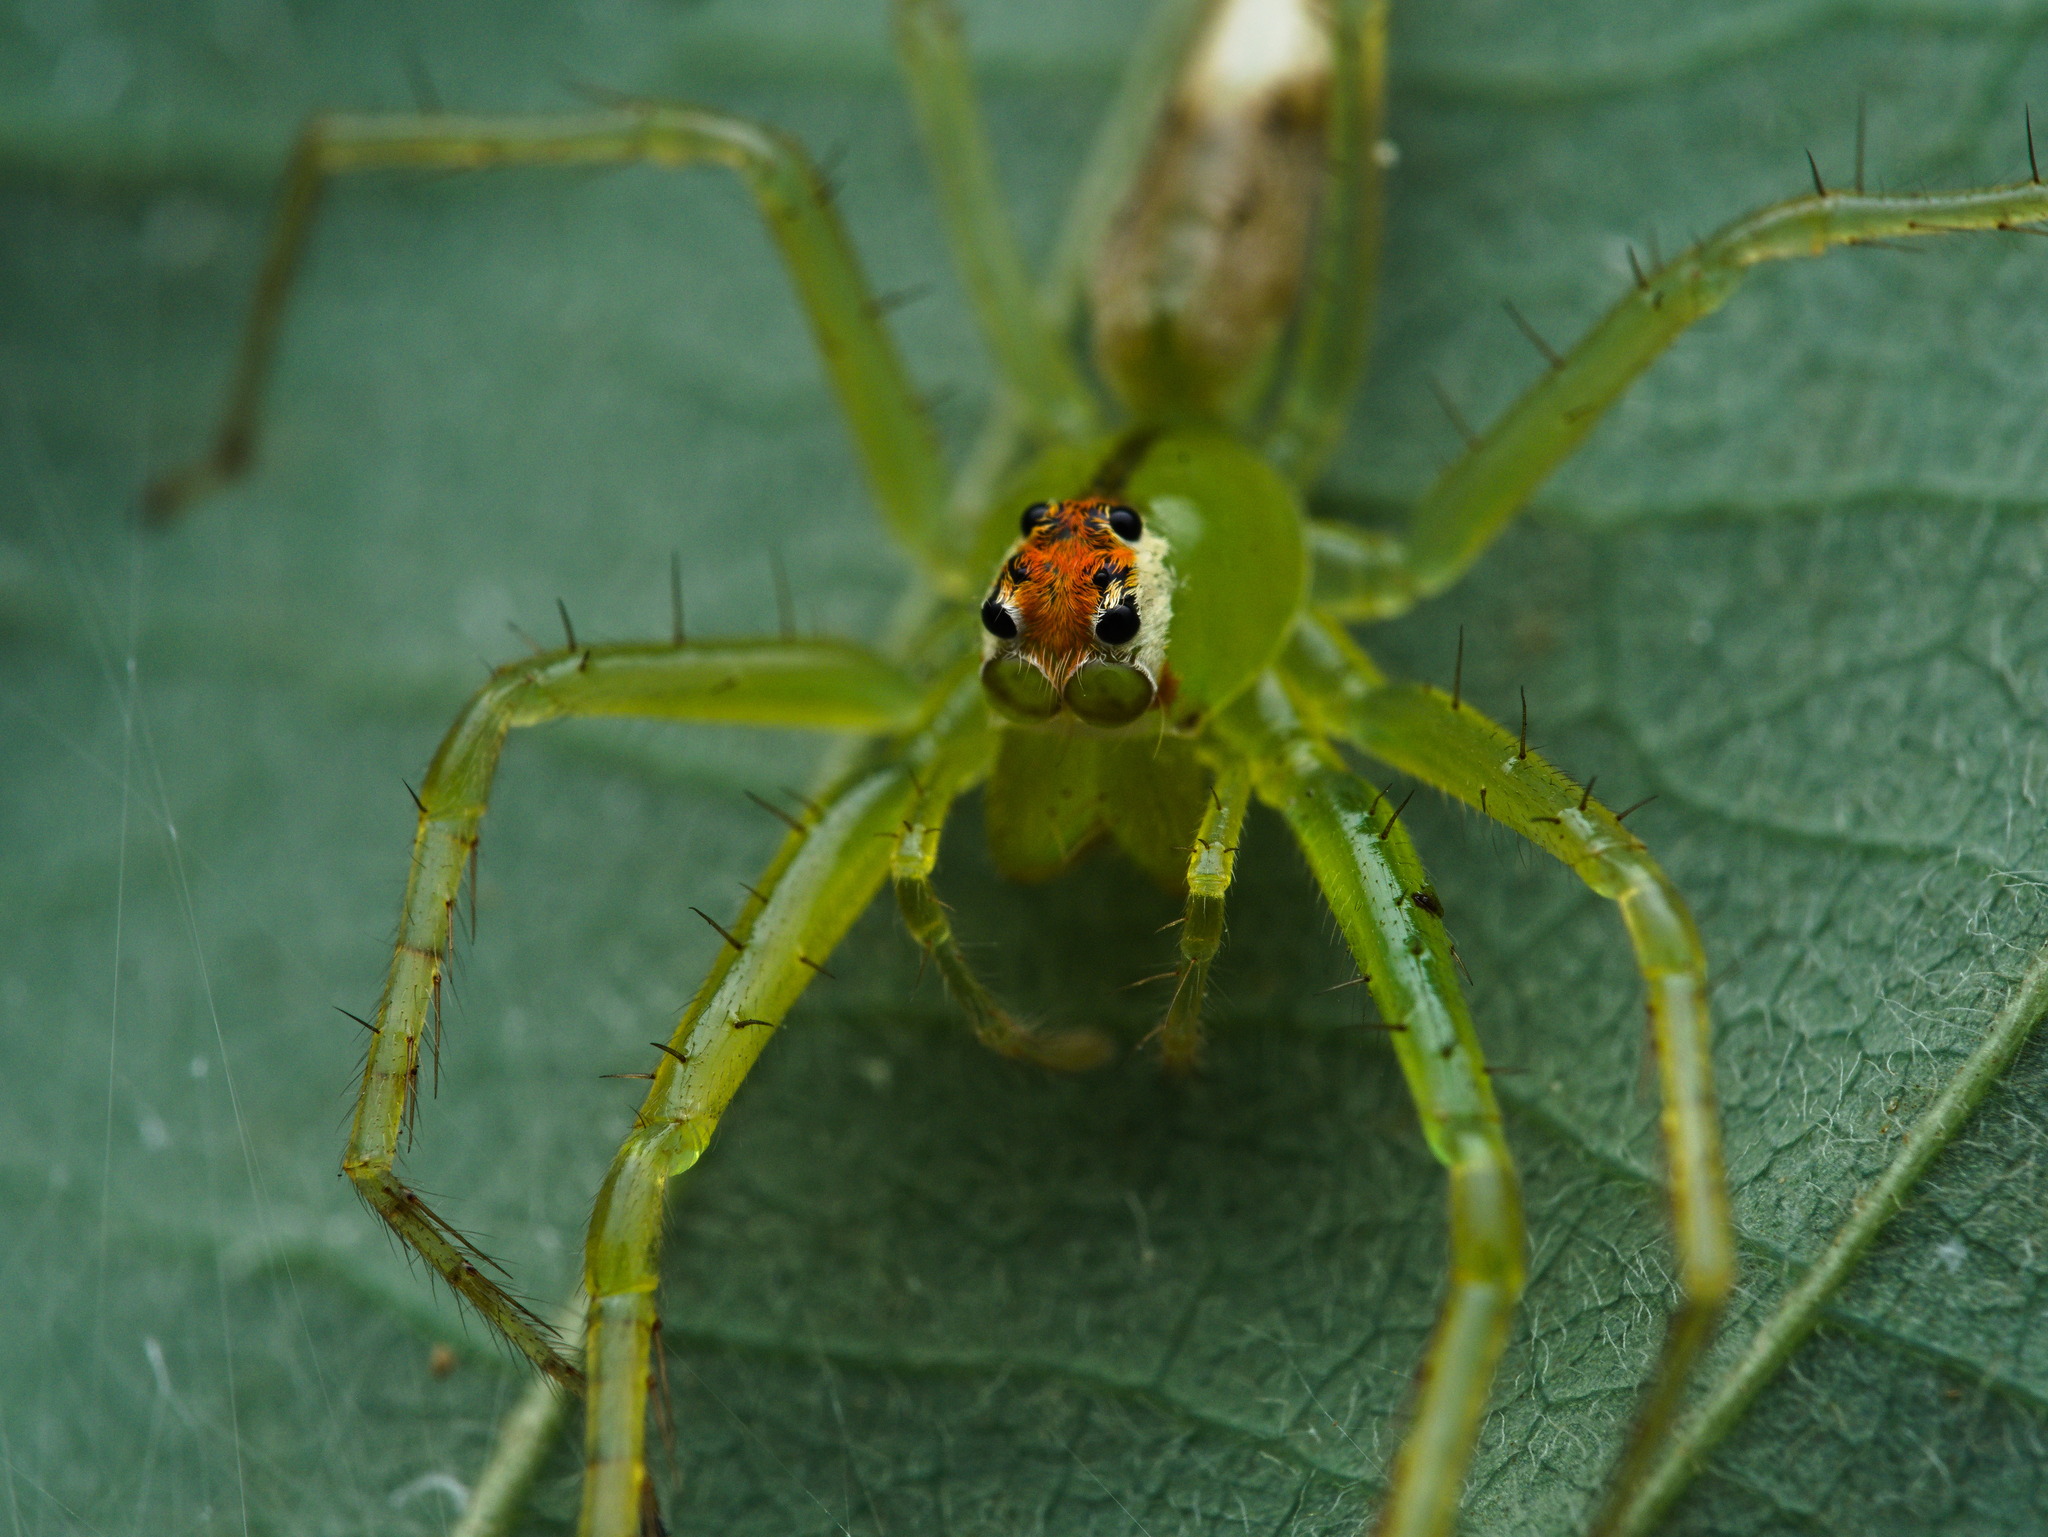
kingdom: Animalia
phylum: Arthropoda
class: Arachnida
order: Araneae
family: Salticidae
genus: Lyssomanes
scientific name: Lyssomanes viridis
